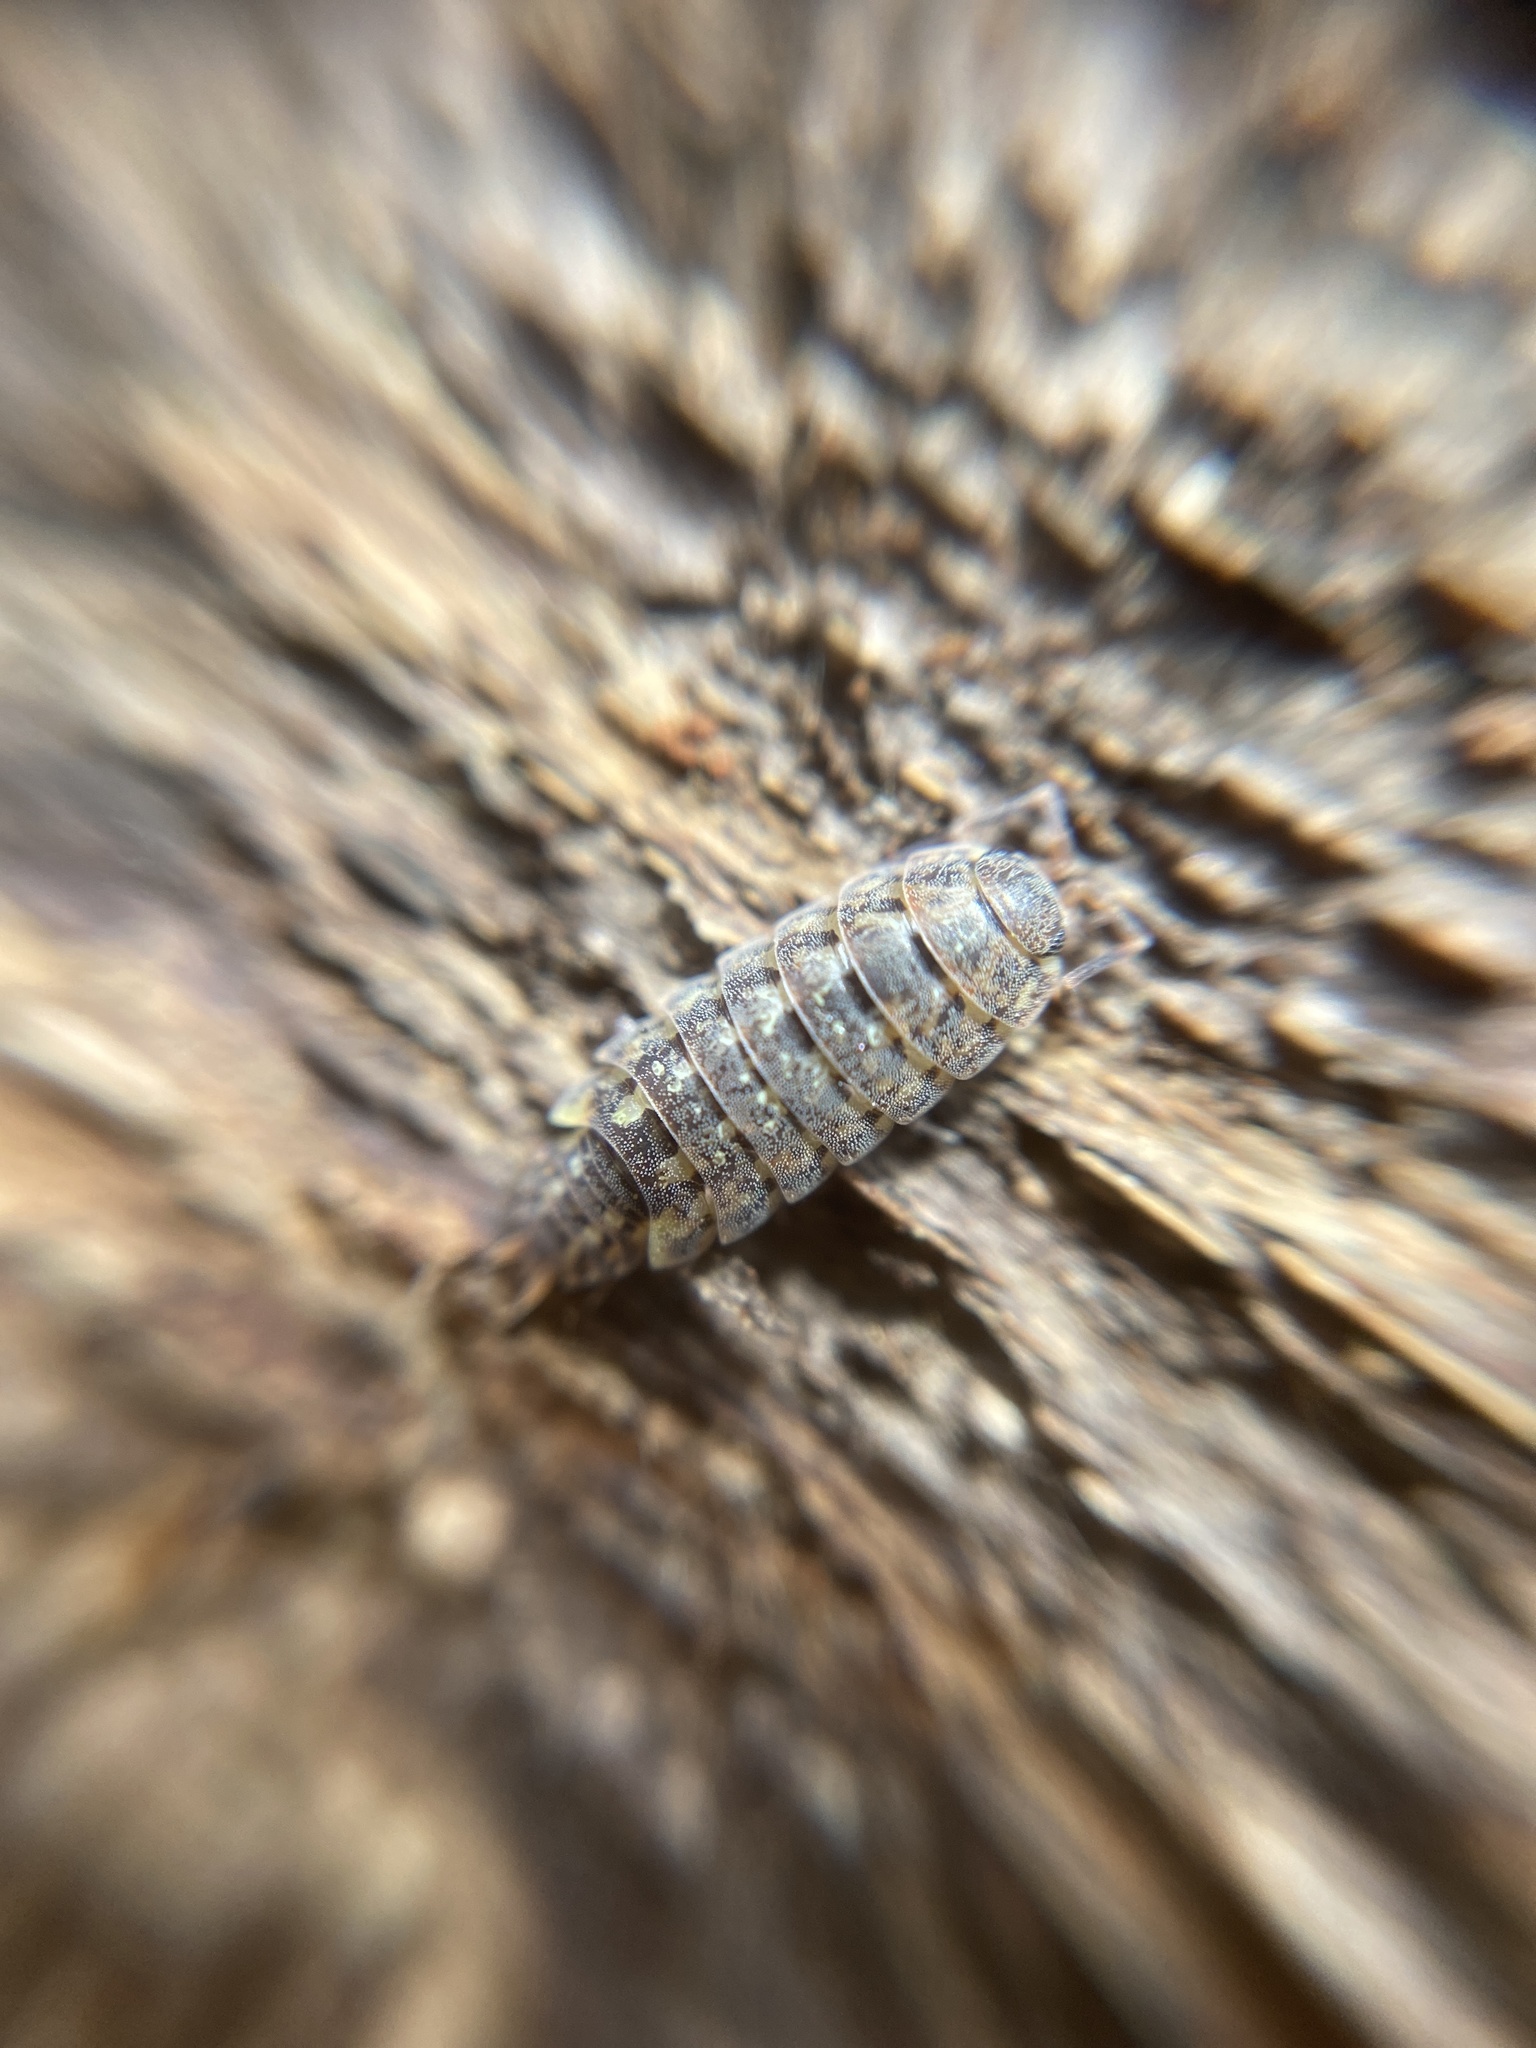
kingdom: Animalia
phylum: Arthropoda
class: Malacostraca
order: Isopoda
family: Philosciidae
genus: Lepidoniscus
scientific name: Lepidoniscus minutus
